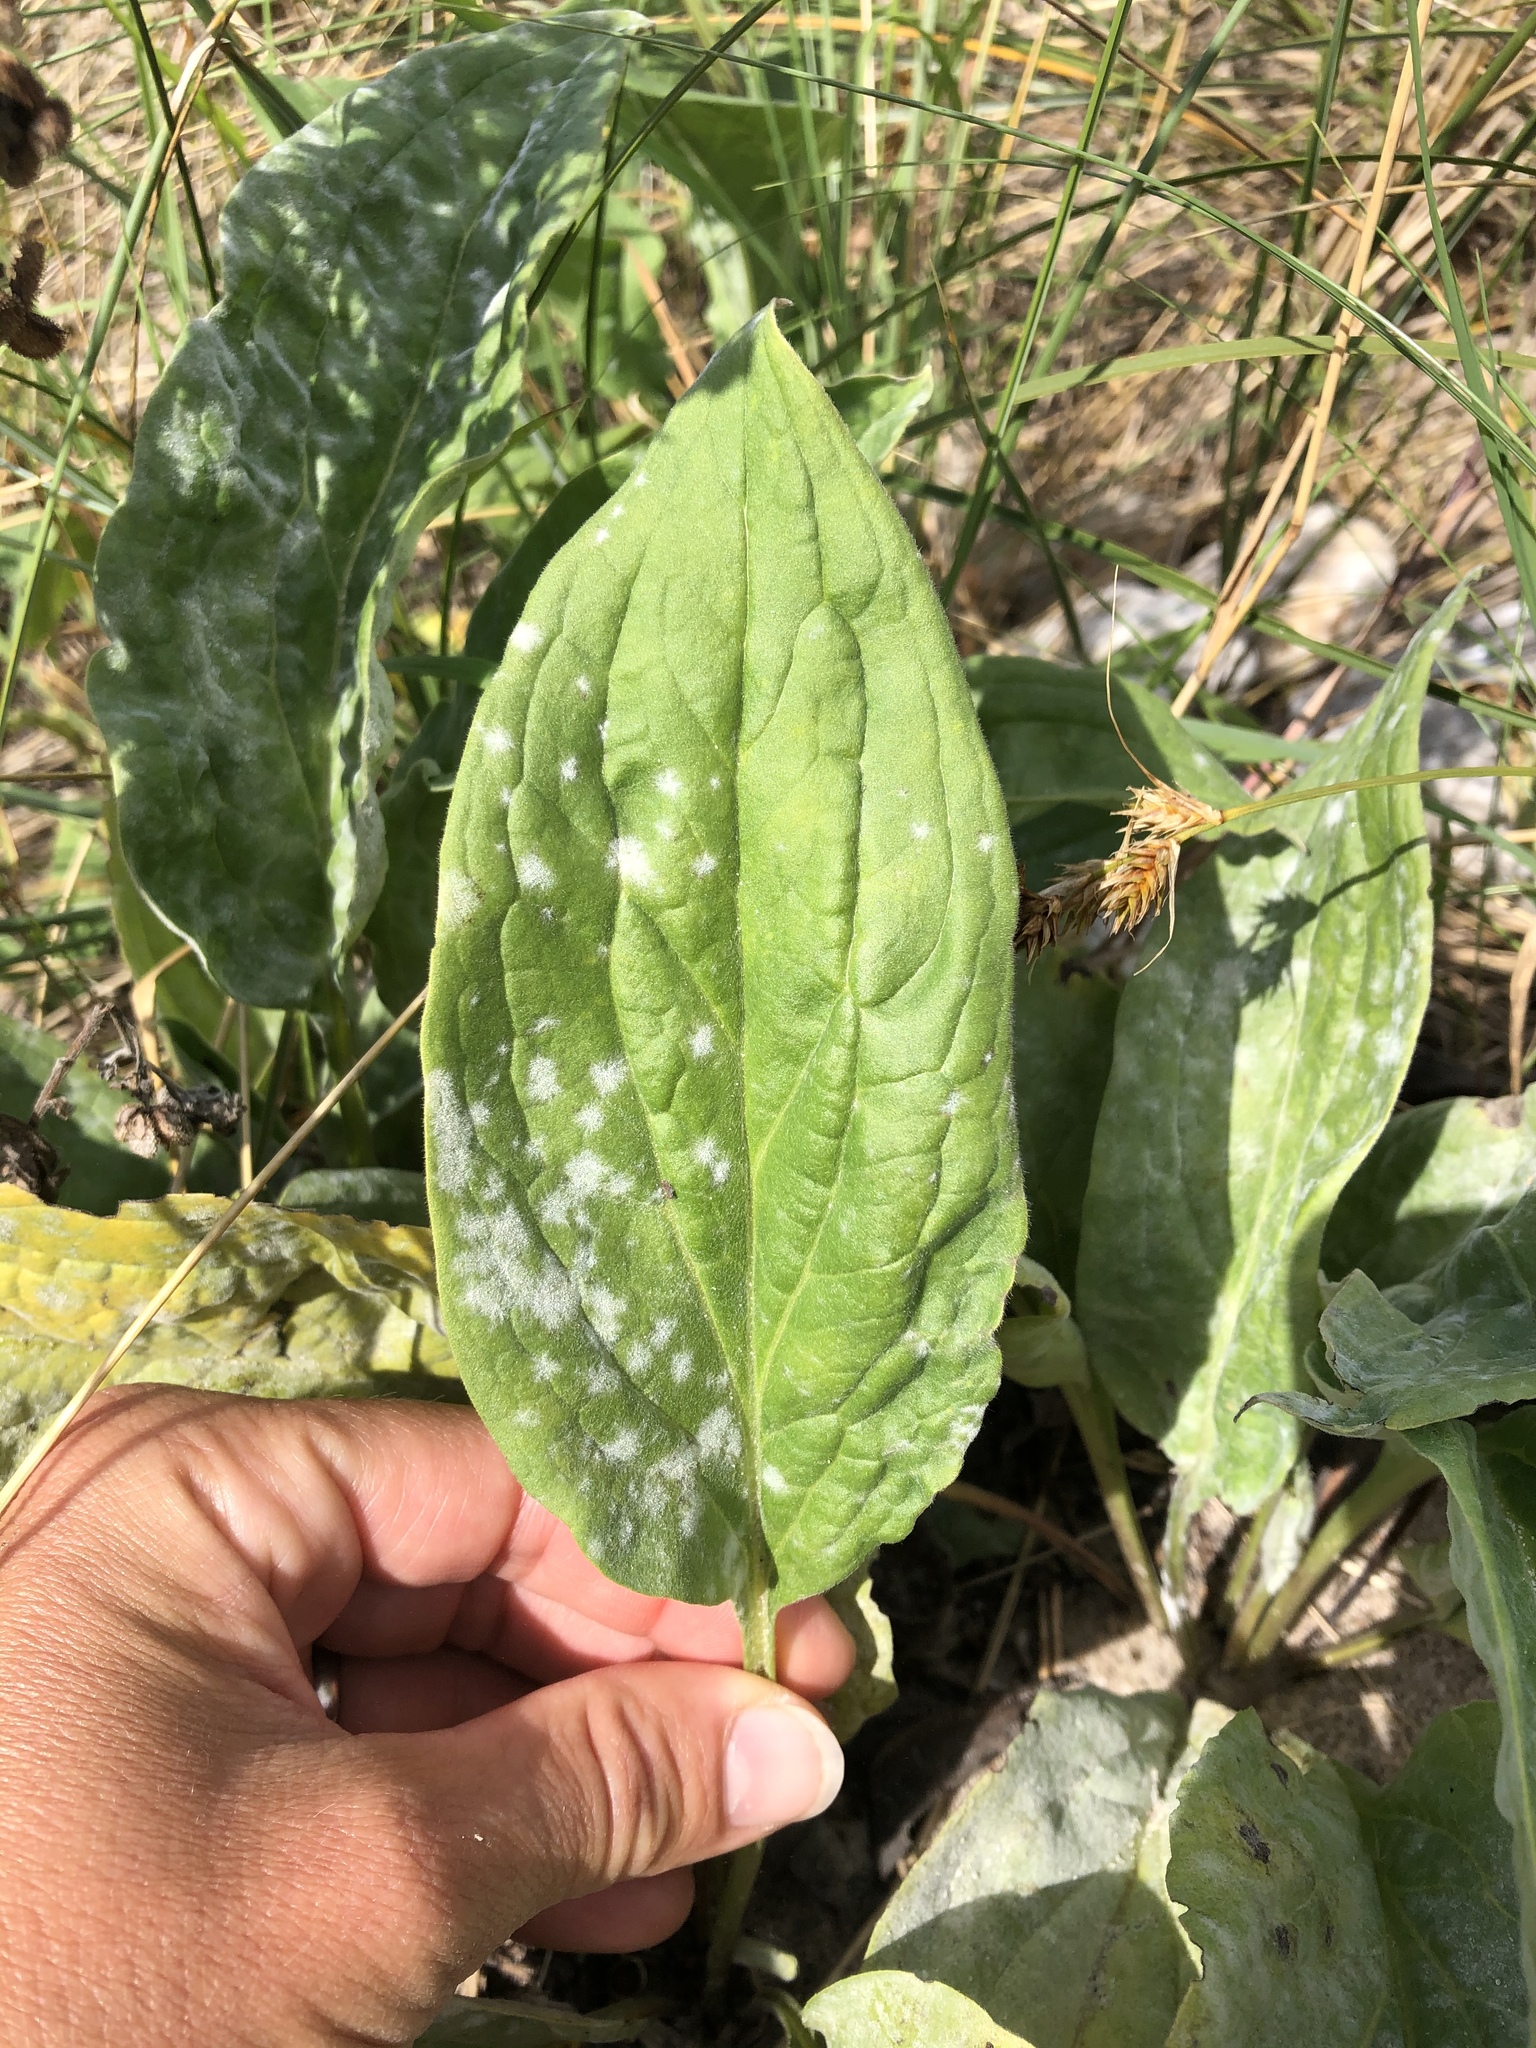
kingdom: Plantae
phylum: Tracheophyta
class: Magnoliopsida
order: Boraginales
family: Boraginaceae
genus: Cynoglossum
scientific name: Cynoglossum officinale
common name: Hound's-tongue
